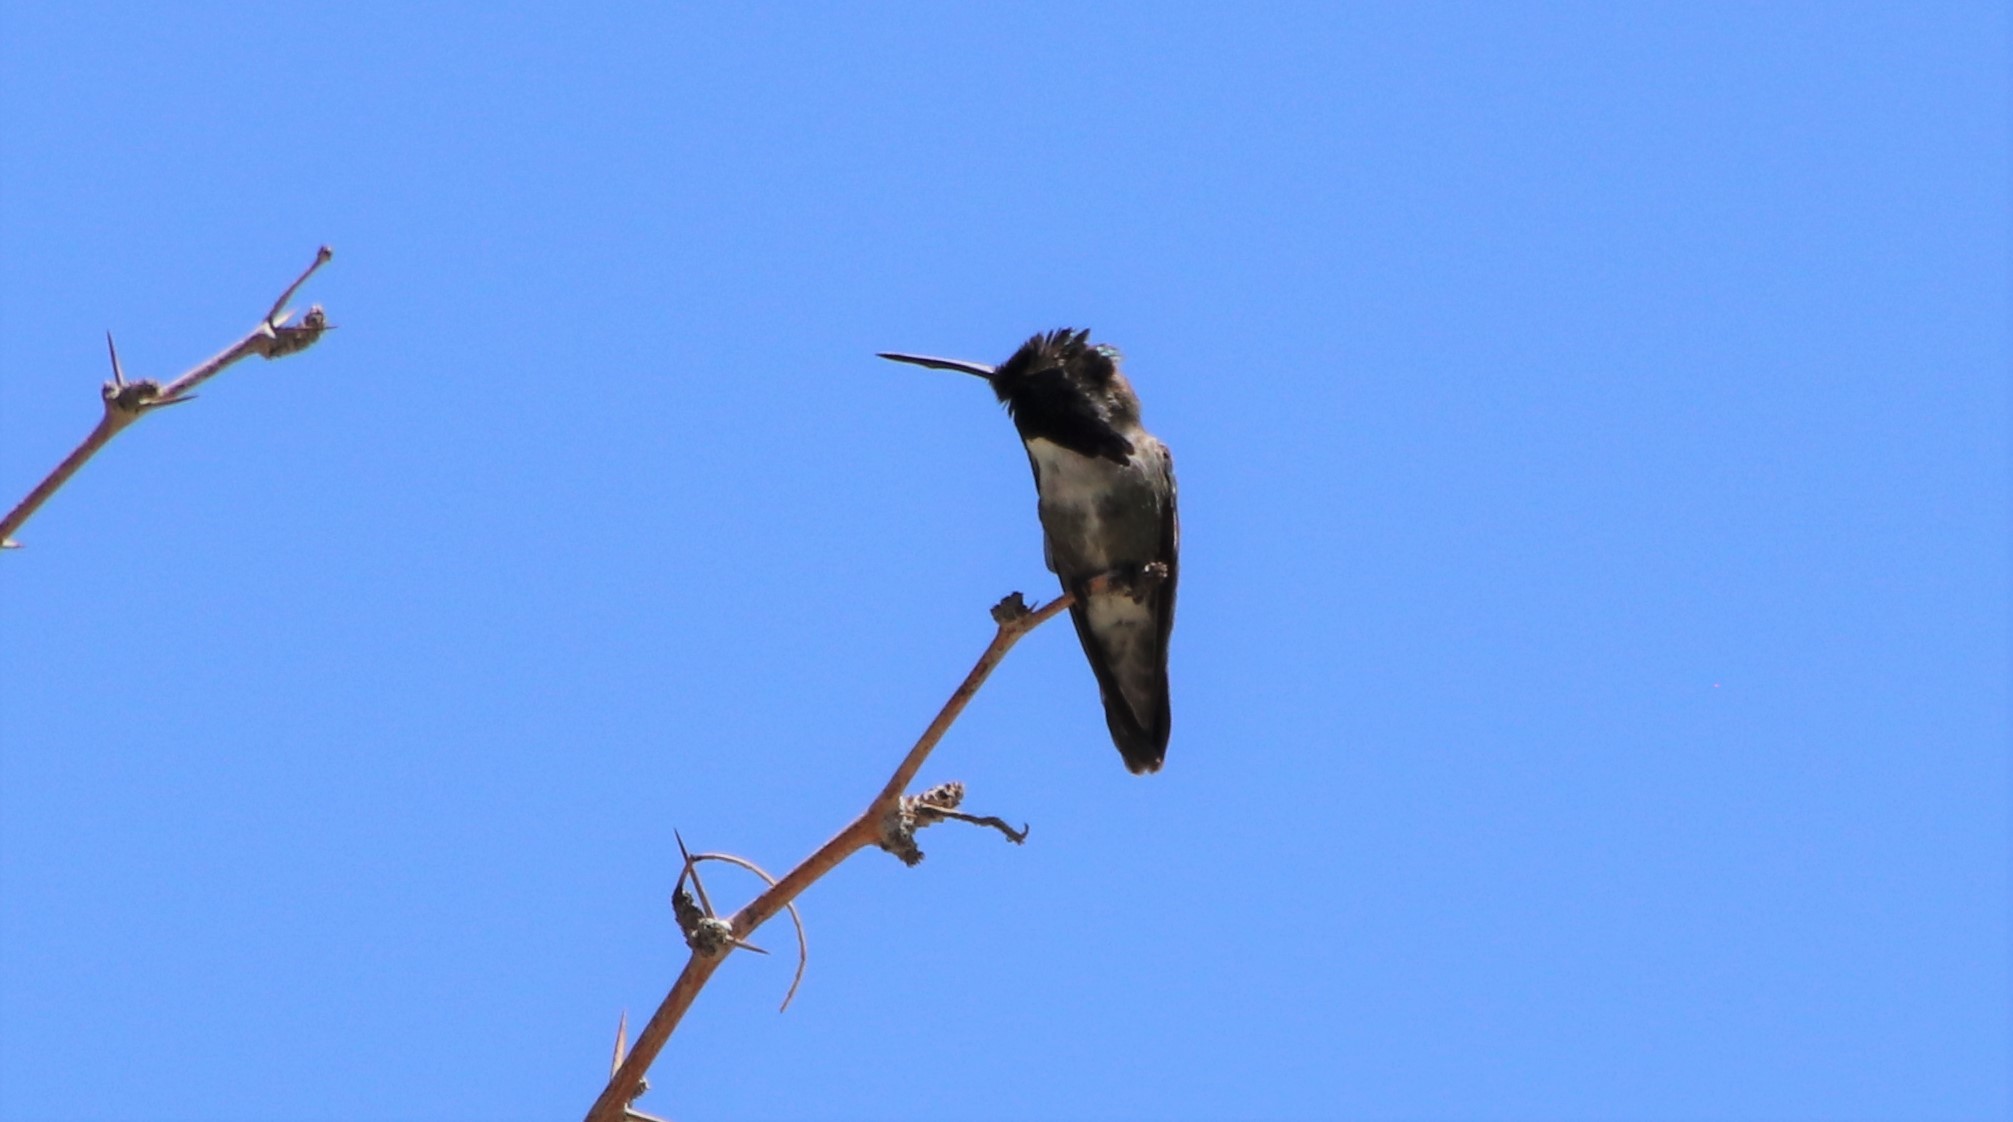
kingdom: Animalia
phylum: Chordata
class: Aves
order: Apodiformes
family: Trochilidae
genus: Calypte
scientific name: Calypte costae
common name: Costa's hummingbird
